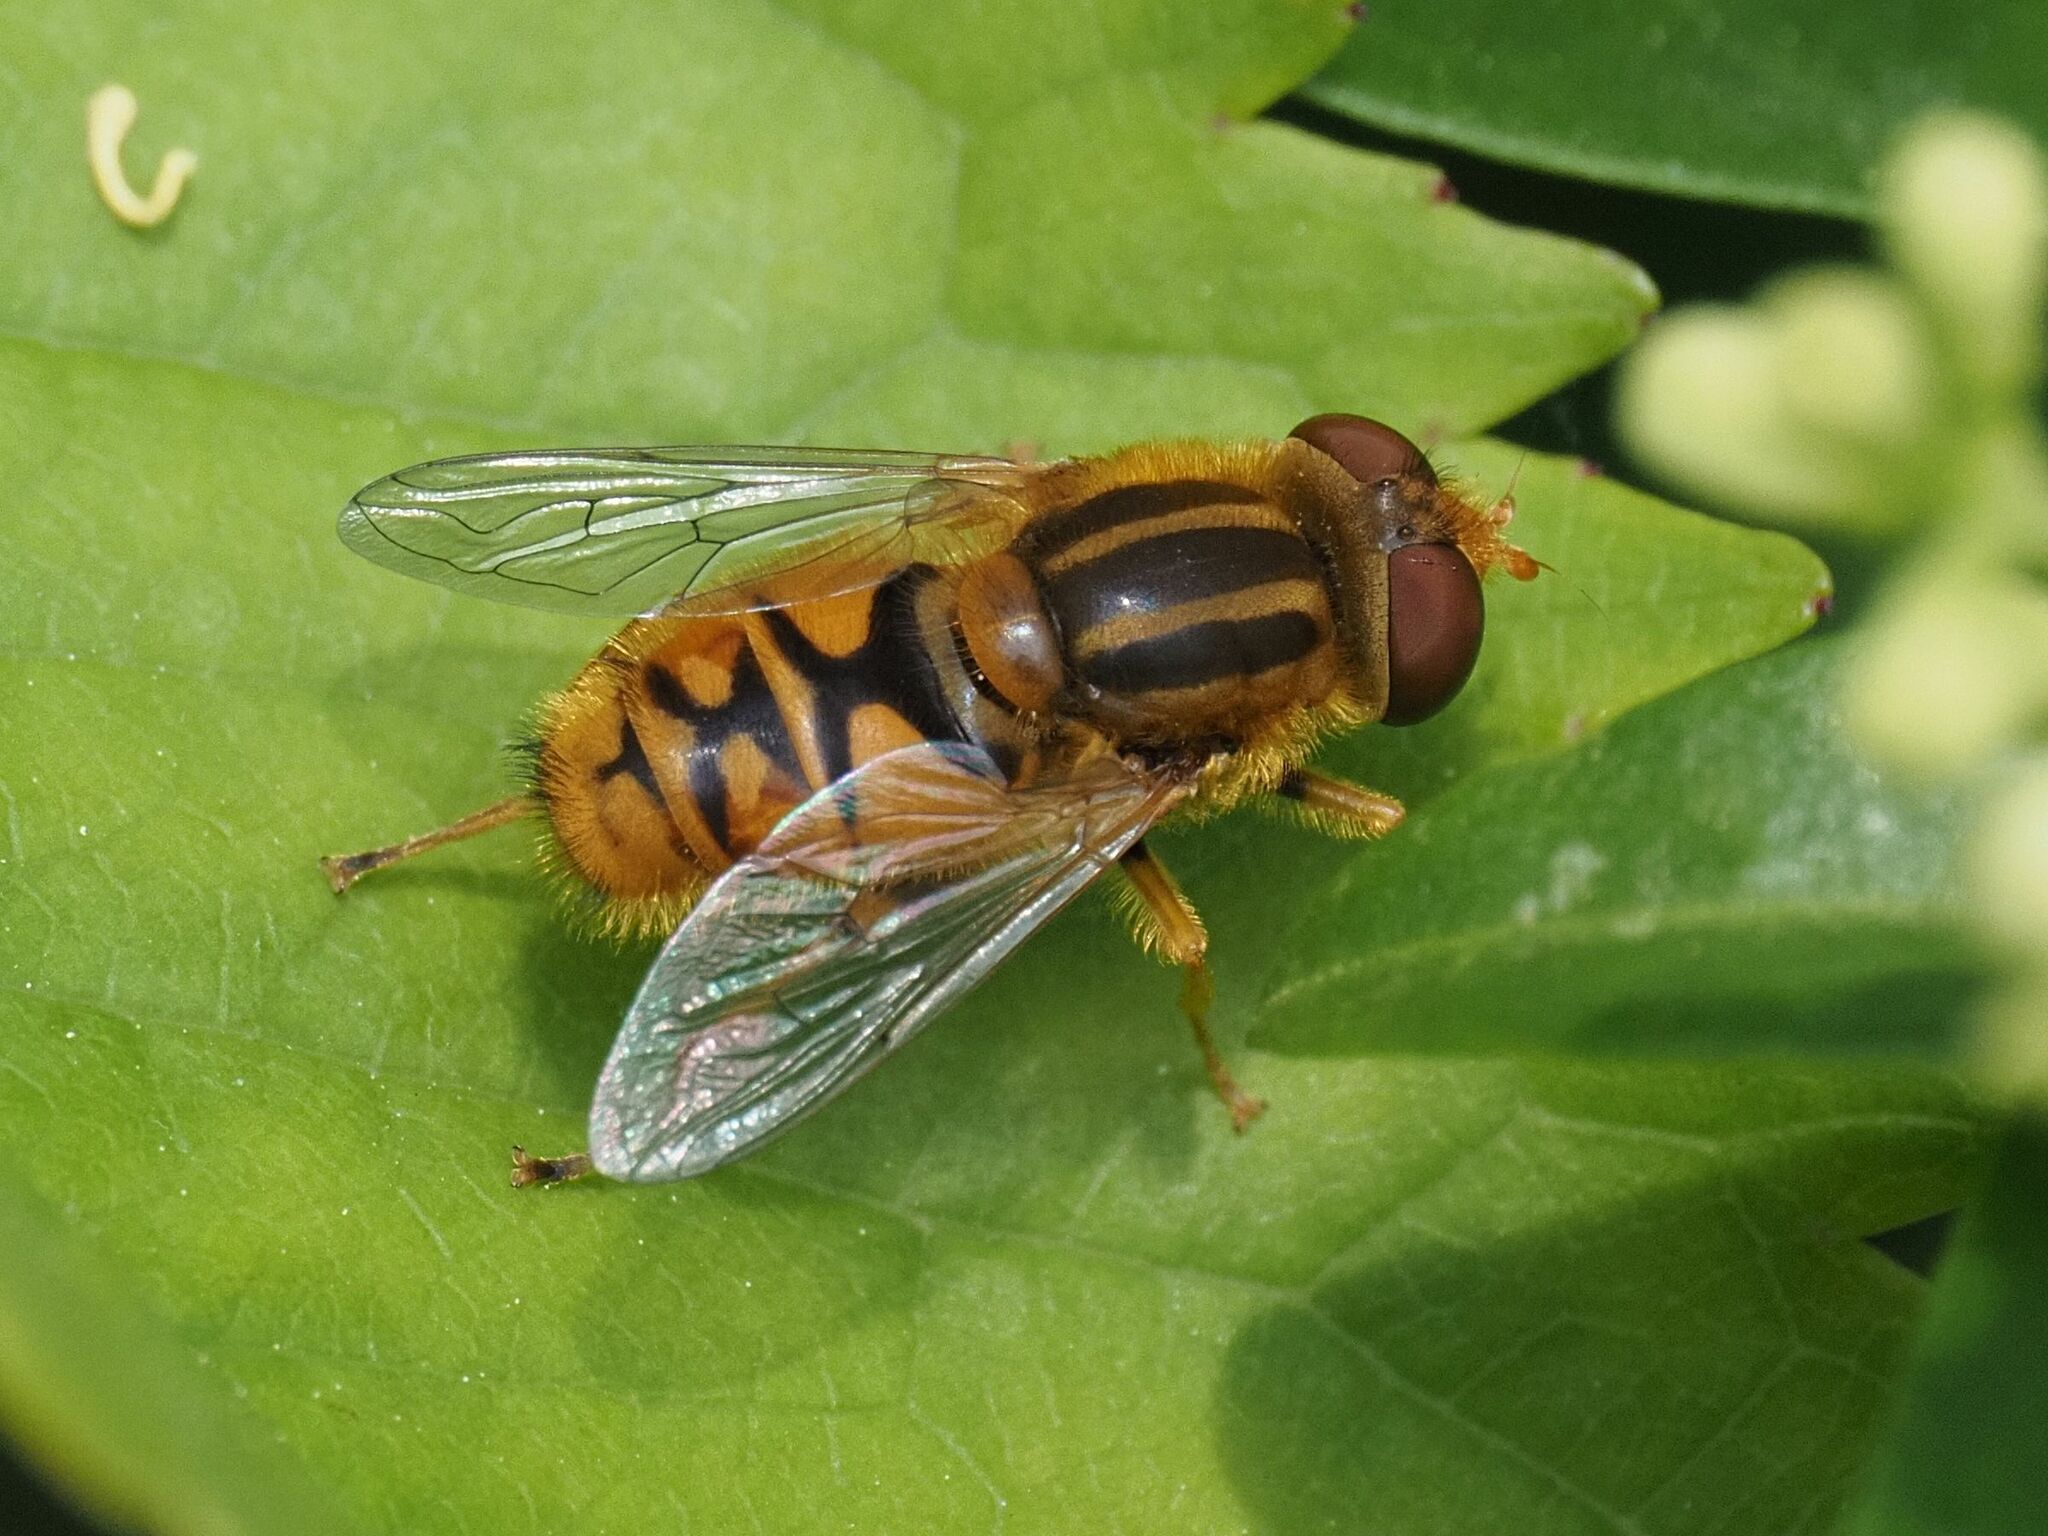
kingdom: Animalia
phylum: Arthropoda
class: Insecta
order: Diptera
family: Syrphidae
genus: Parhelophilus
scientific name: Parhelophilus frutetorum
